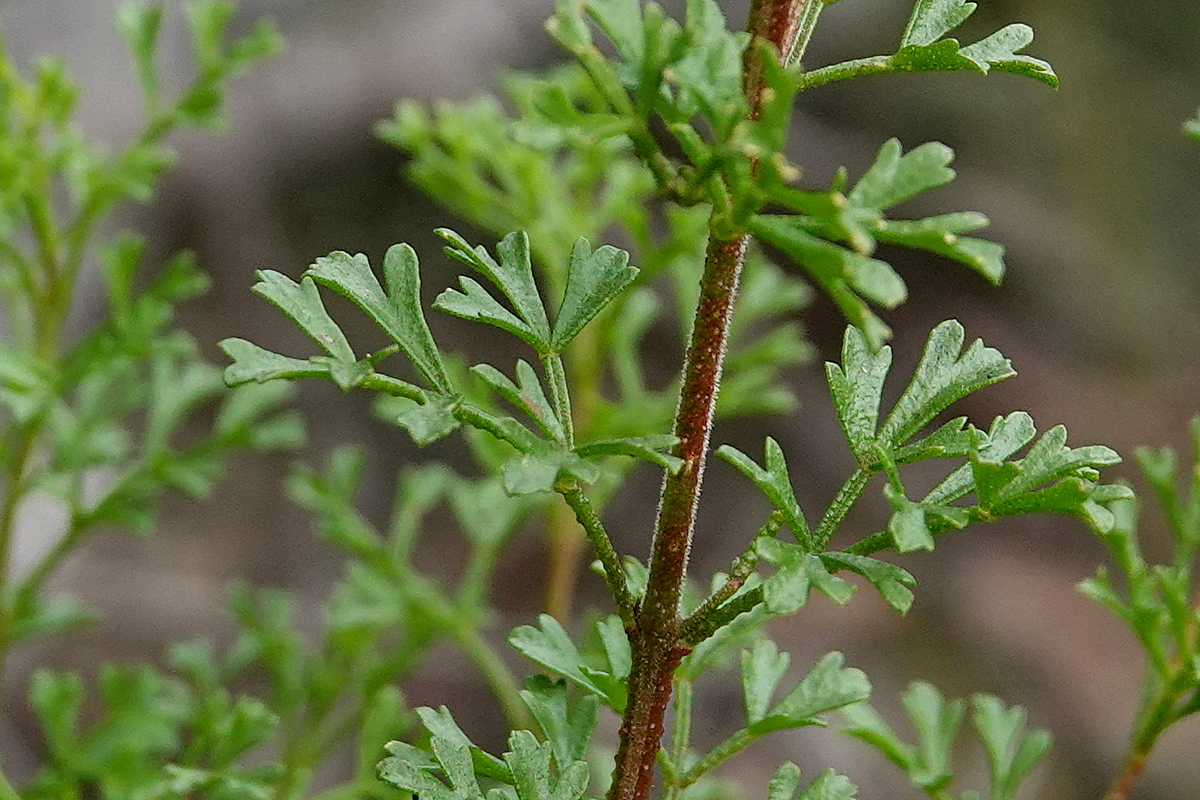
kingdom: Plantae
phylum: Tracheophyta
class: Magnoliopsida
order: Sapindales
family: Rutaceae
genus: Cyanothamnus
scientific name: Cyanothamnus anemonifolius
